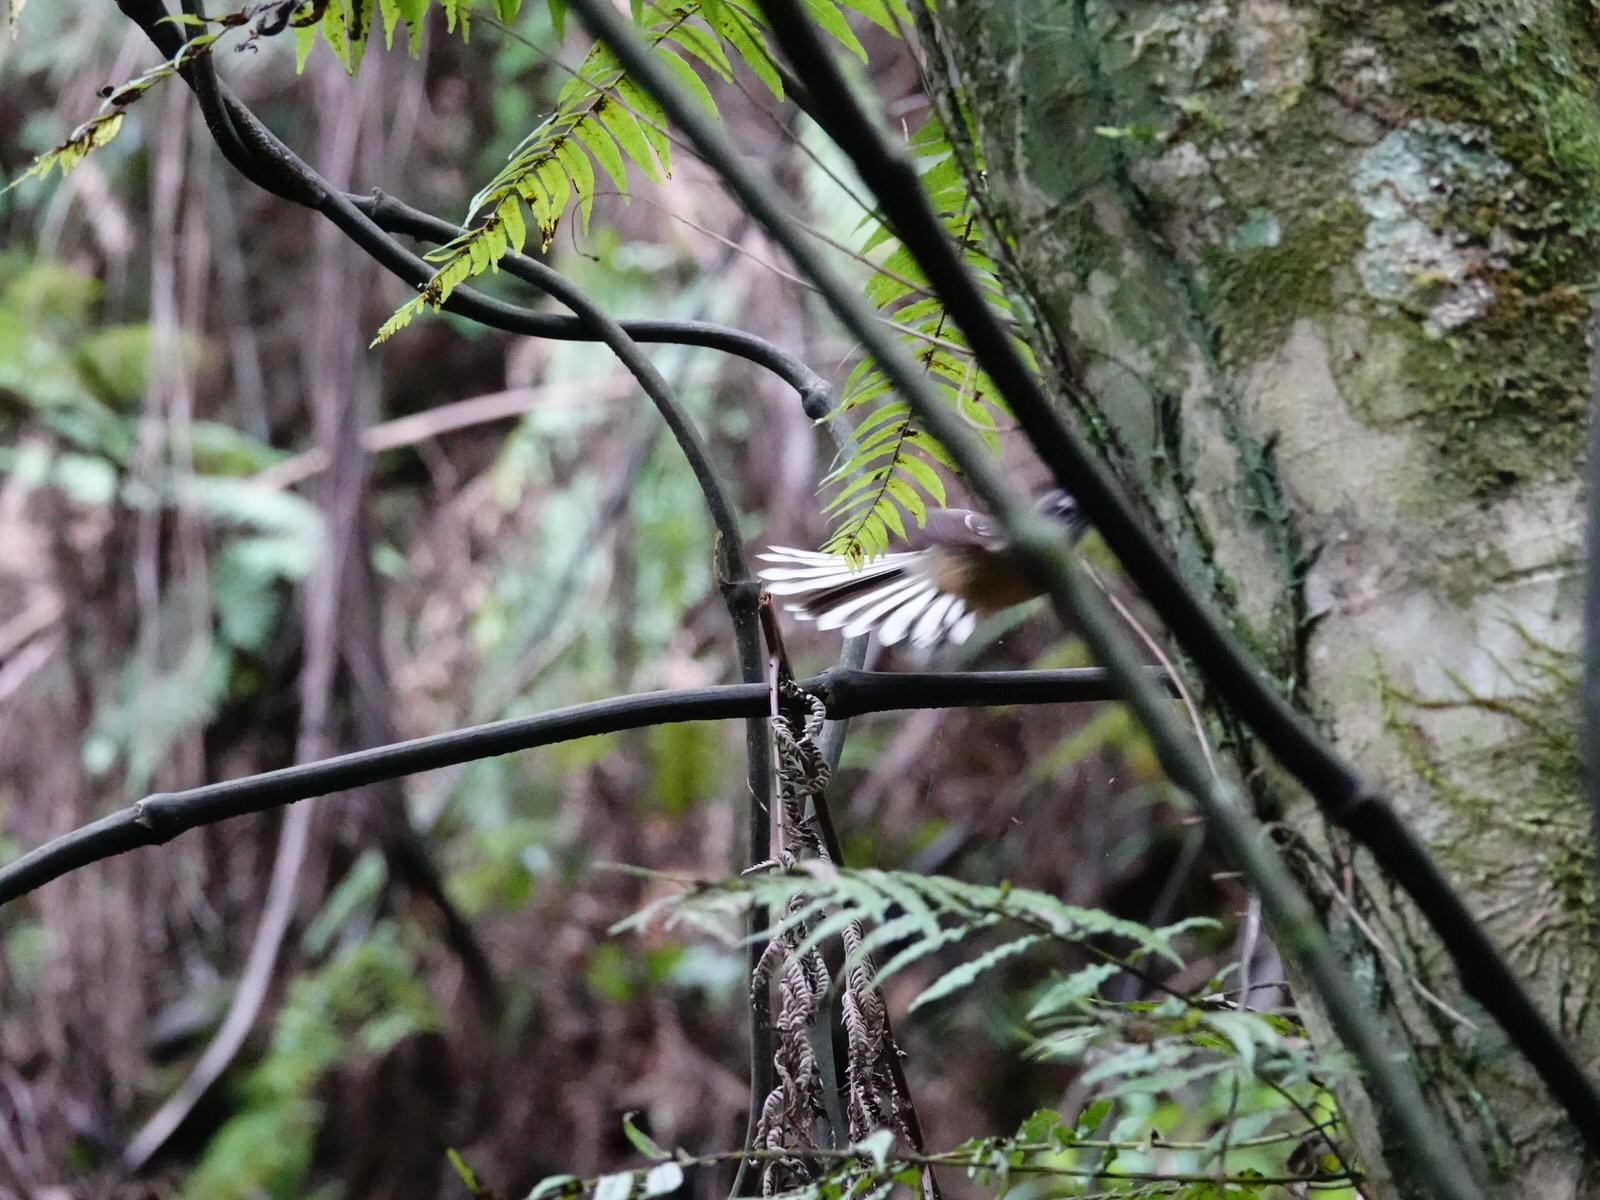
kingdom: Animalia
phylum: Chordata
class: Aves
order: Passeriformes
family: Rhipiduridae
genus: Rhipidura
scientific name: Rhipidura fuliginosa
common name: New zealand fantail
